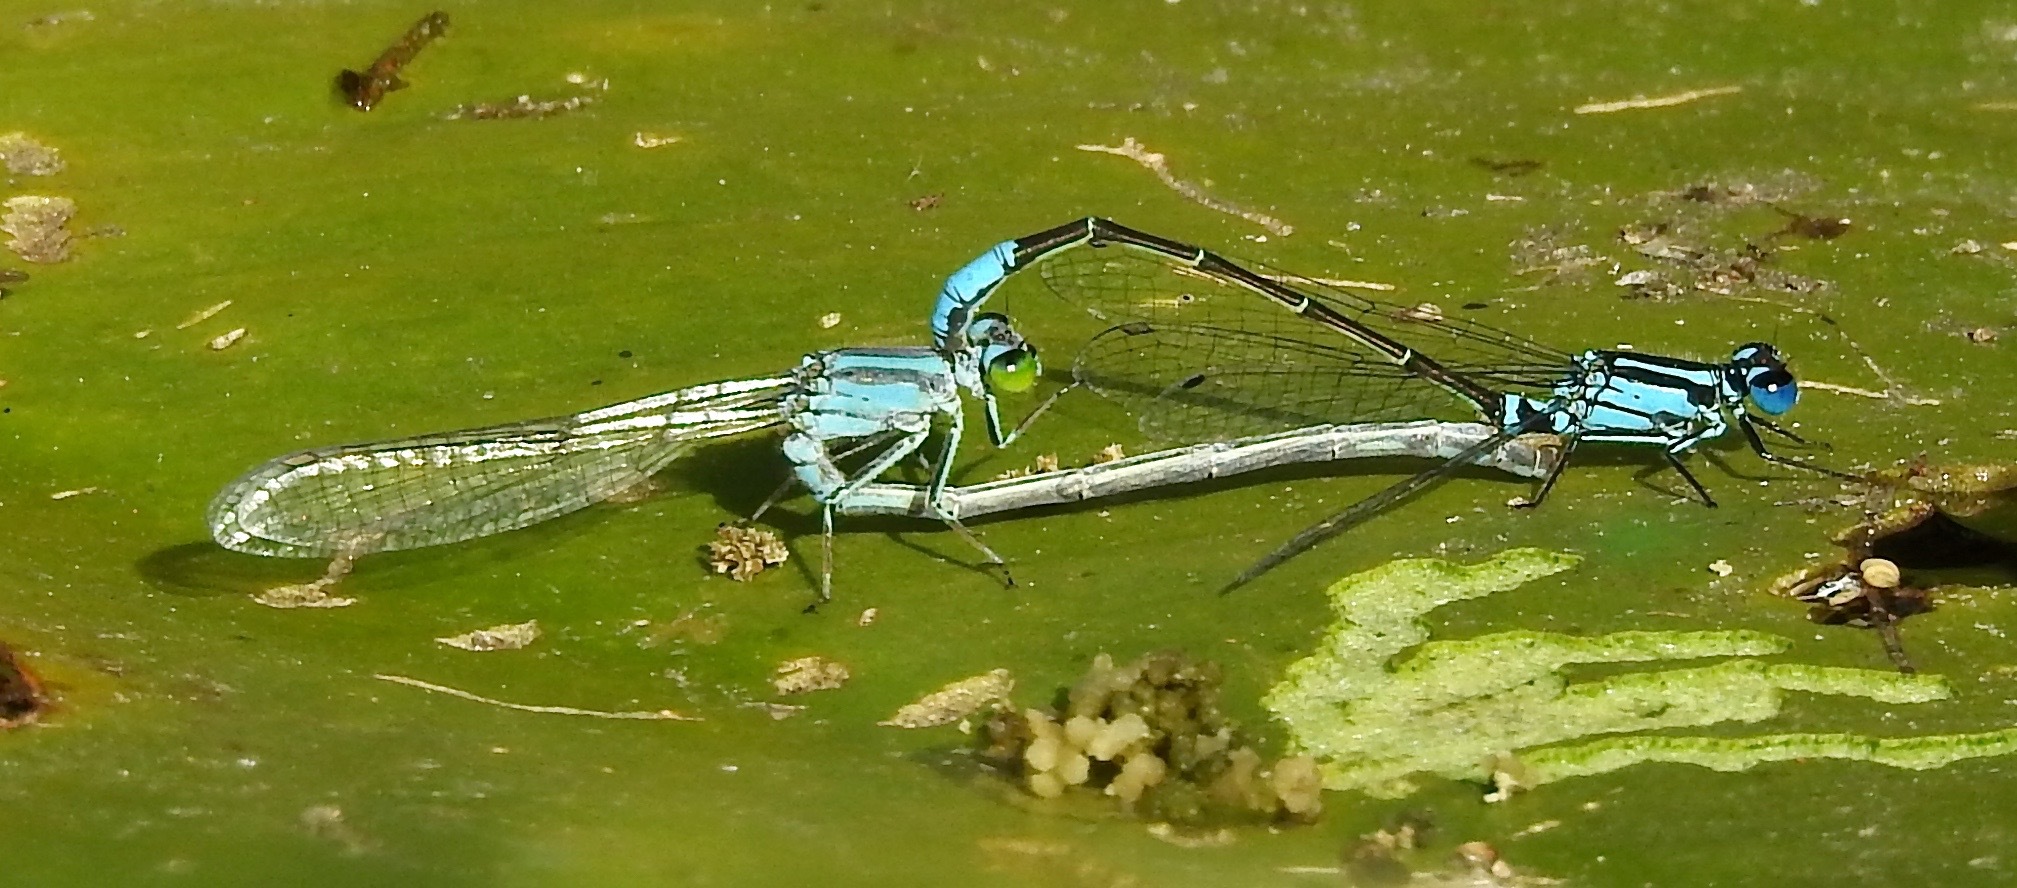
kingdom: Animalia
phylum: Arthropoda
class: Insecta
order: Odonata
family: Coenagrionidae
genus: Ischnura
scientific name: Ischnura kellicotti
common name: Lilypad forktail
